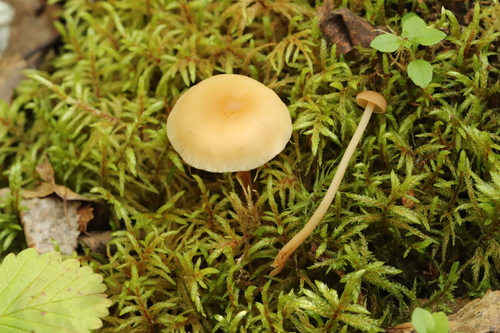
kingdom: Fungi
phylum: Basidiomycota
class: Agaricomycetes
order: Agaricales
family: Omphalotaceae
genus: Gymnopus
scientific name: Gymnopus aquosus
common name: Watery toughshank
